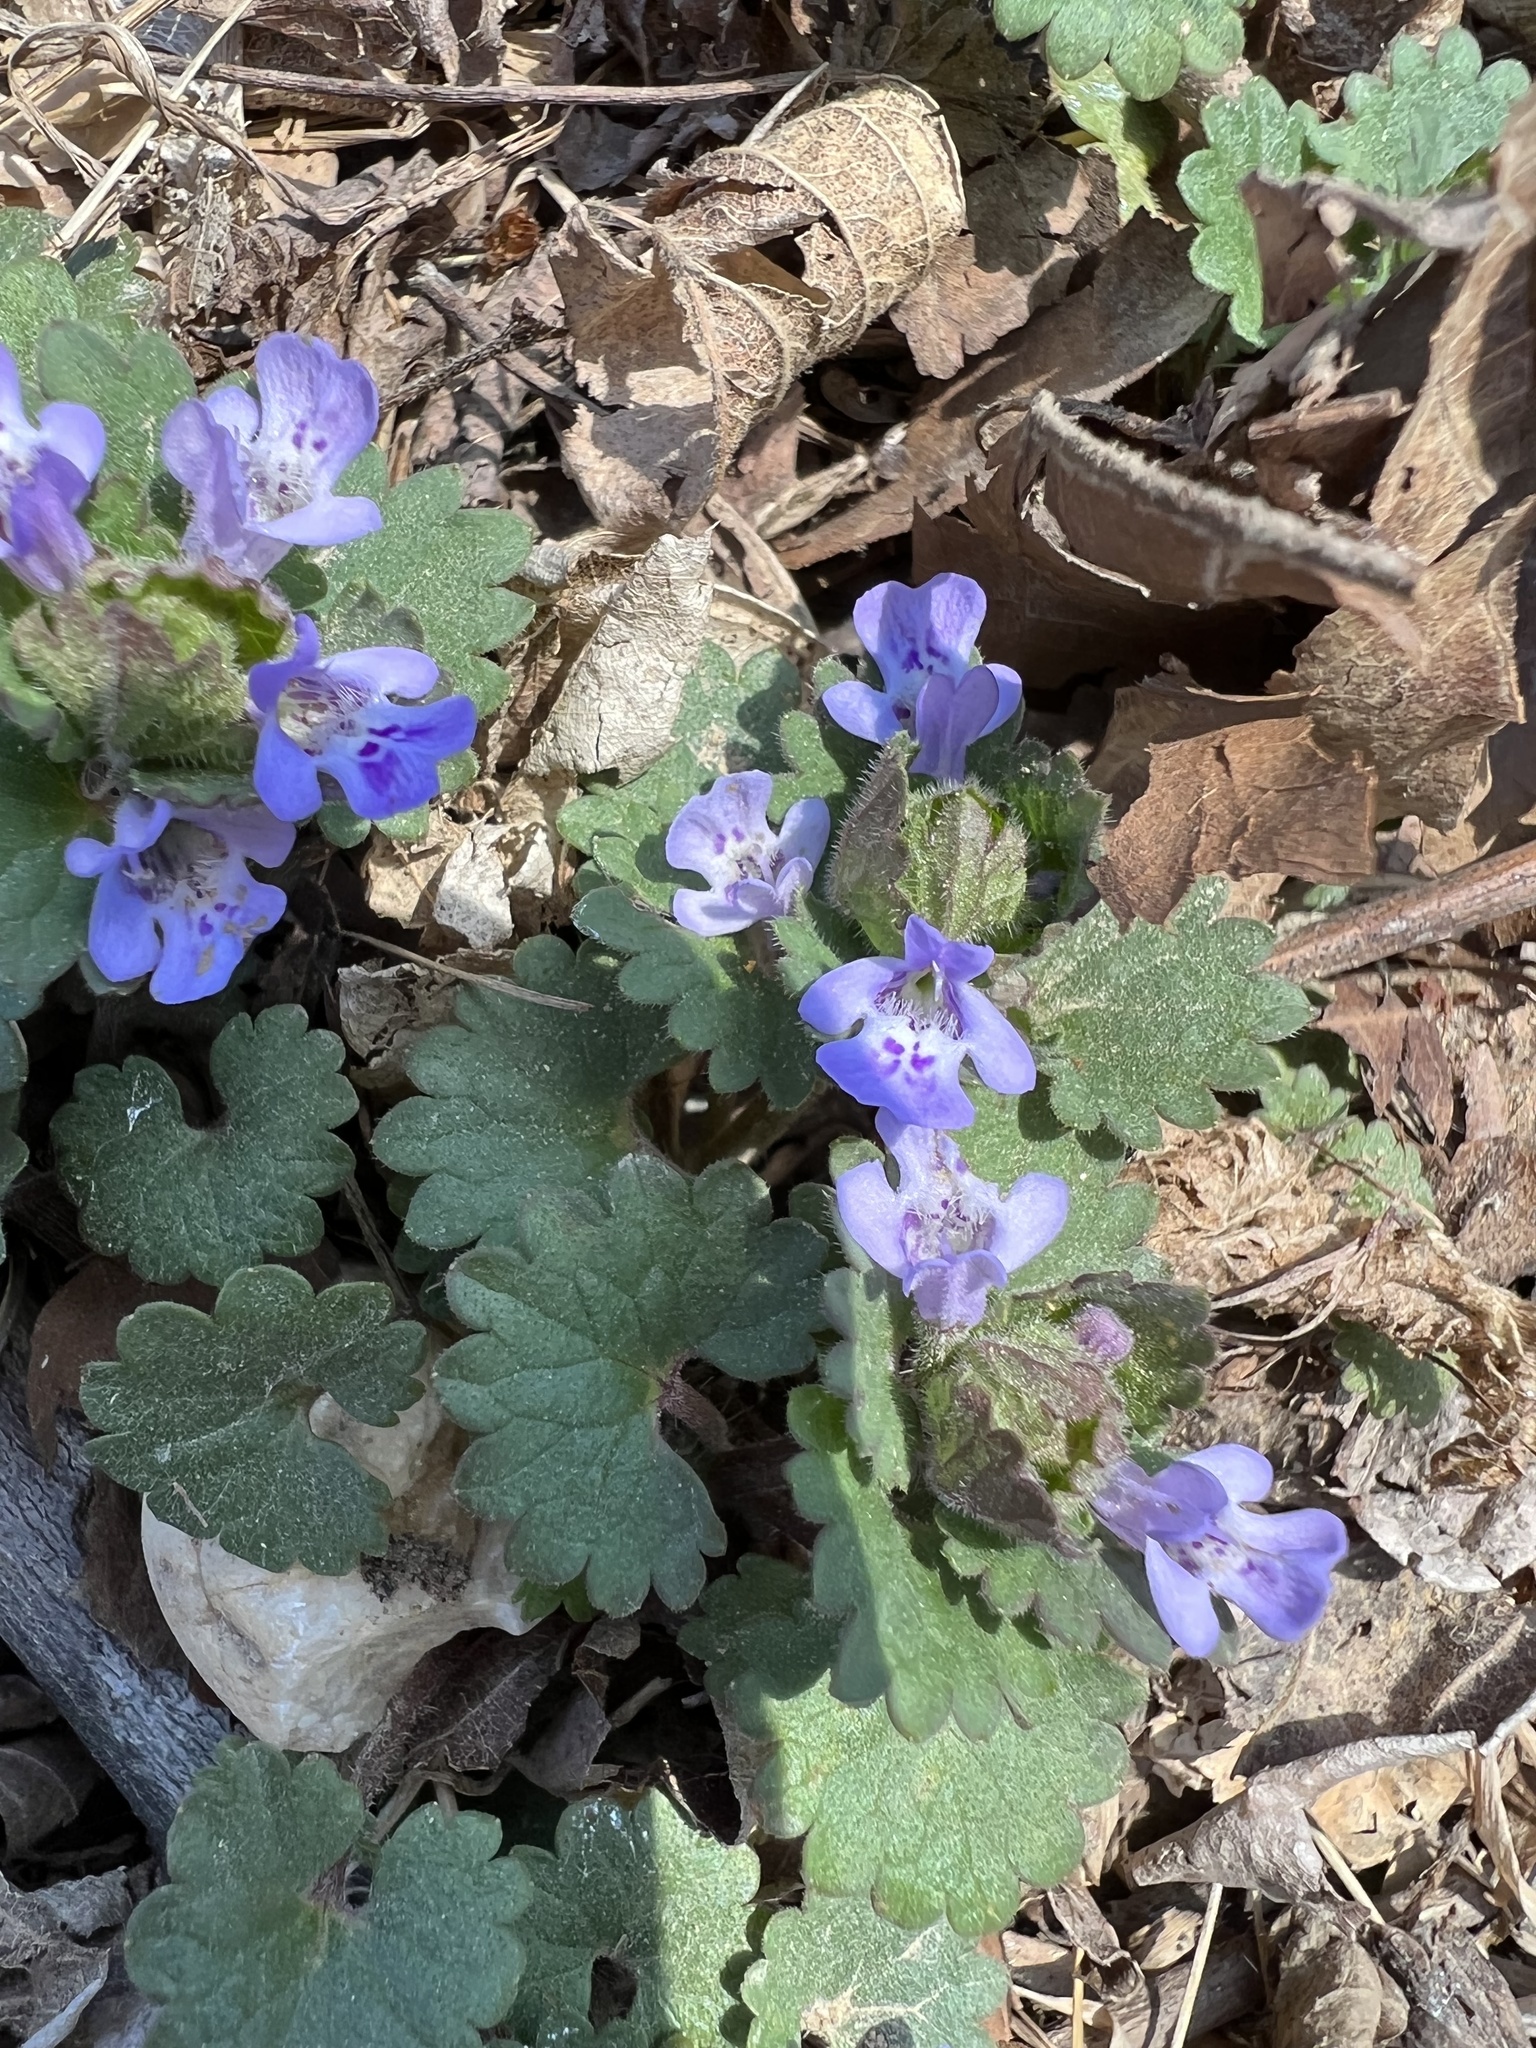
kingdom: Plantae
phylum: Tracheophyta
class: Magnoliopsida
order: Lamiales
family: Lamiaceae
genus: Glechoma
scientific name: Glechoma hederacea
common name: Ground ivy
